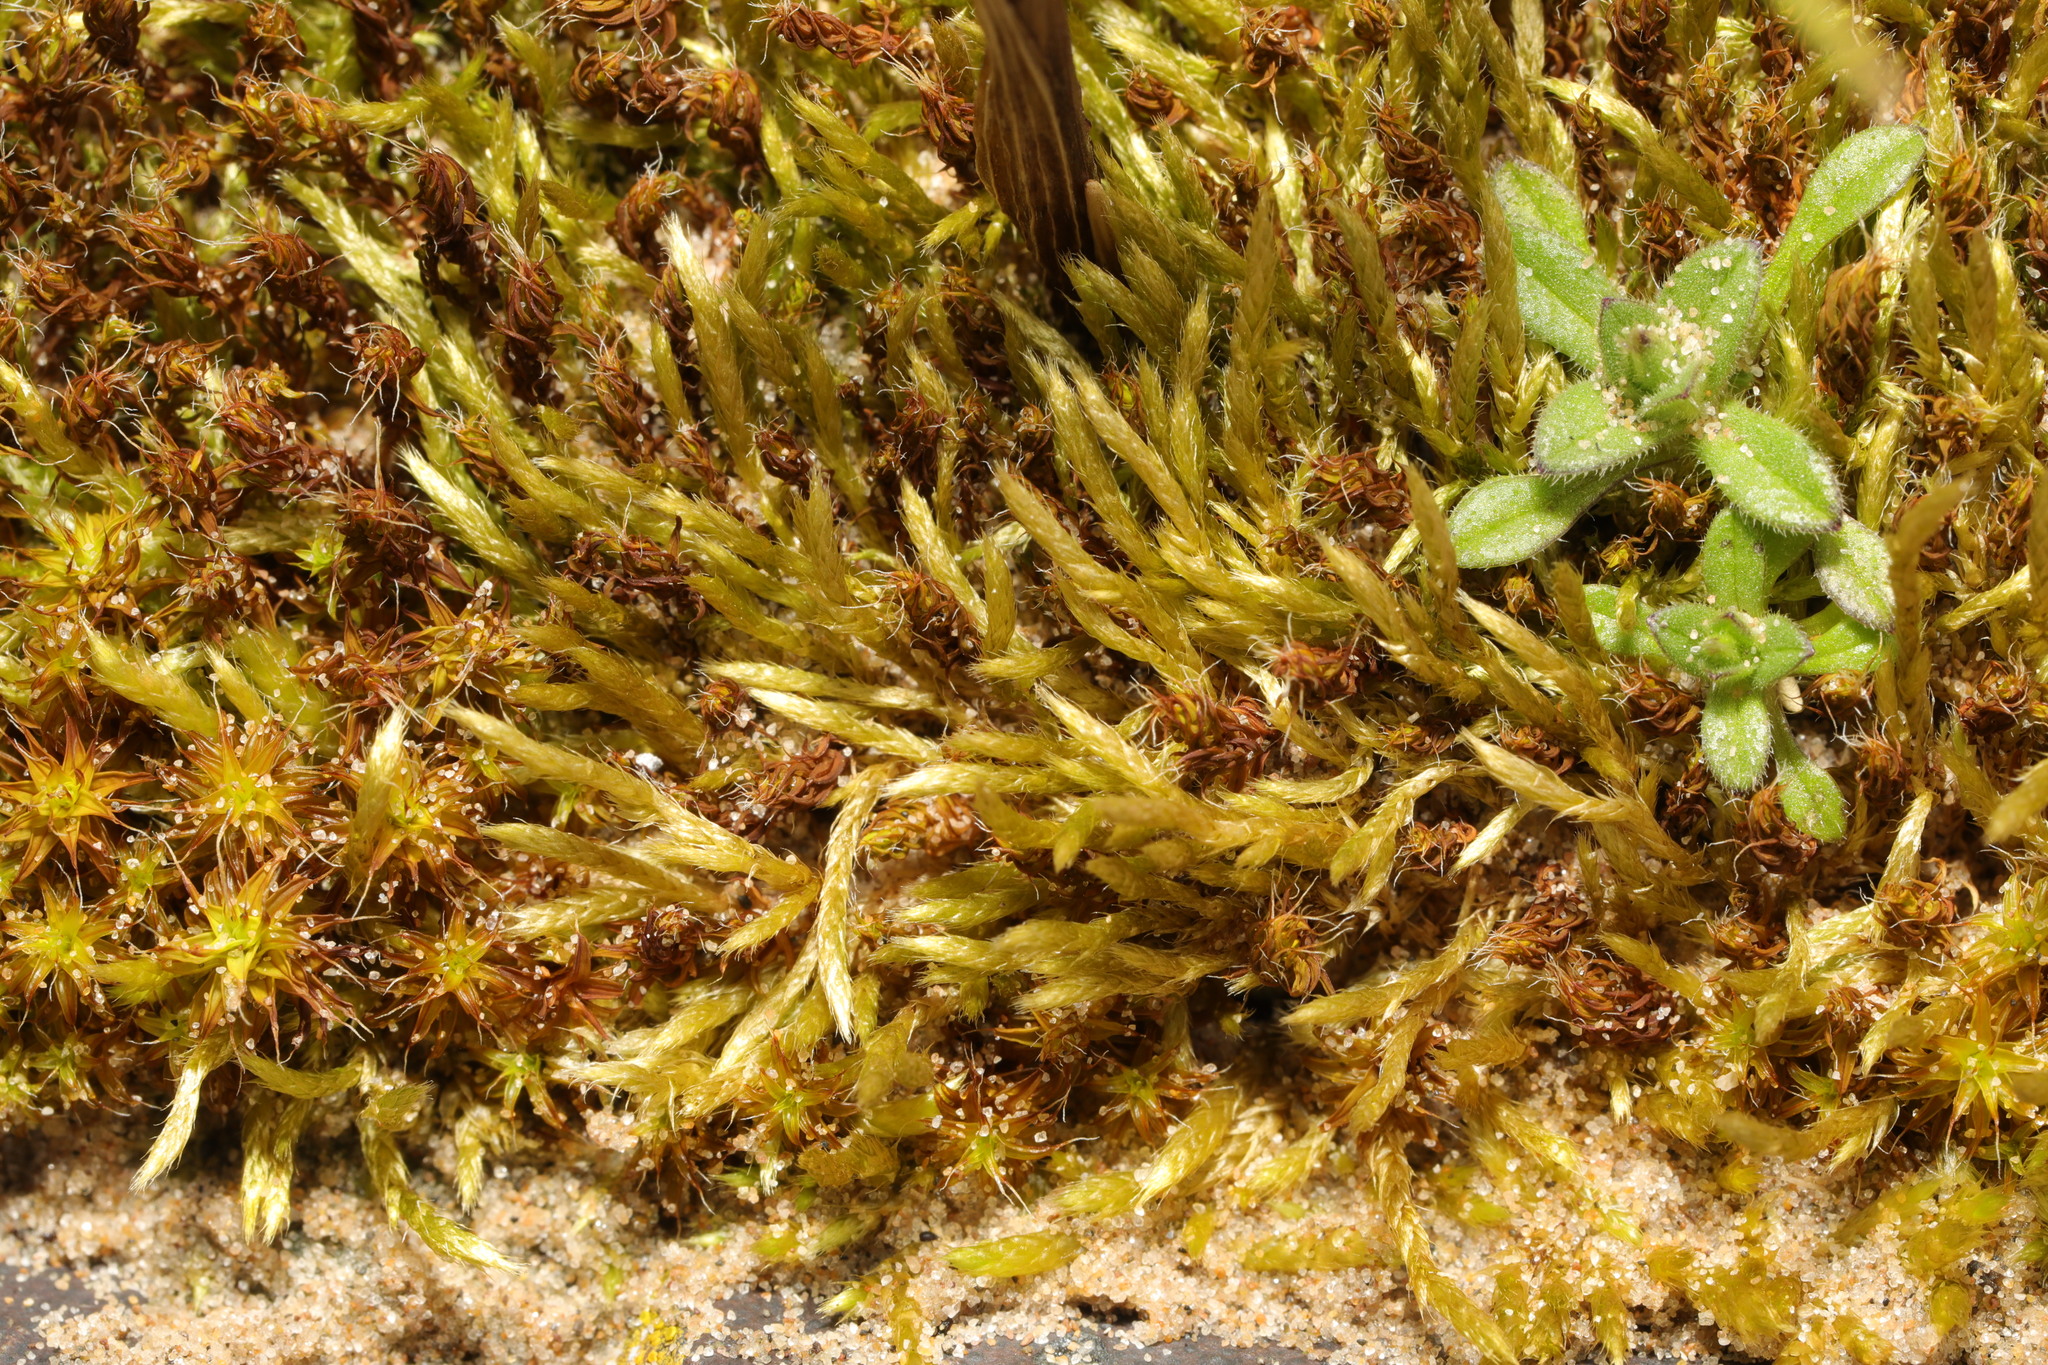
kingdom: Plantae
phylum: Bryophyta
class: Bryopsida
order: Hypnales
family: Brachytheciaceae
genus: Brachythecium
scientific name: Brachythecium albicans
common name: Whitish ragged moss
